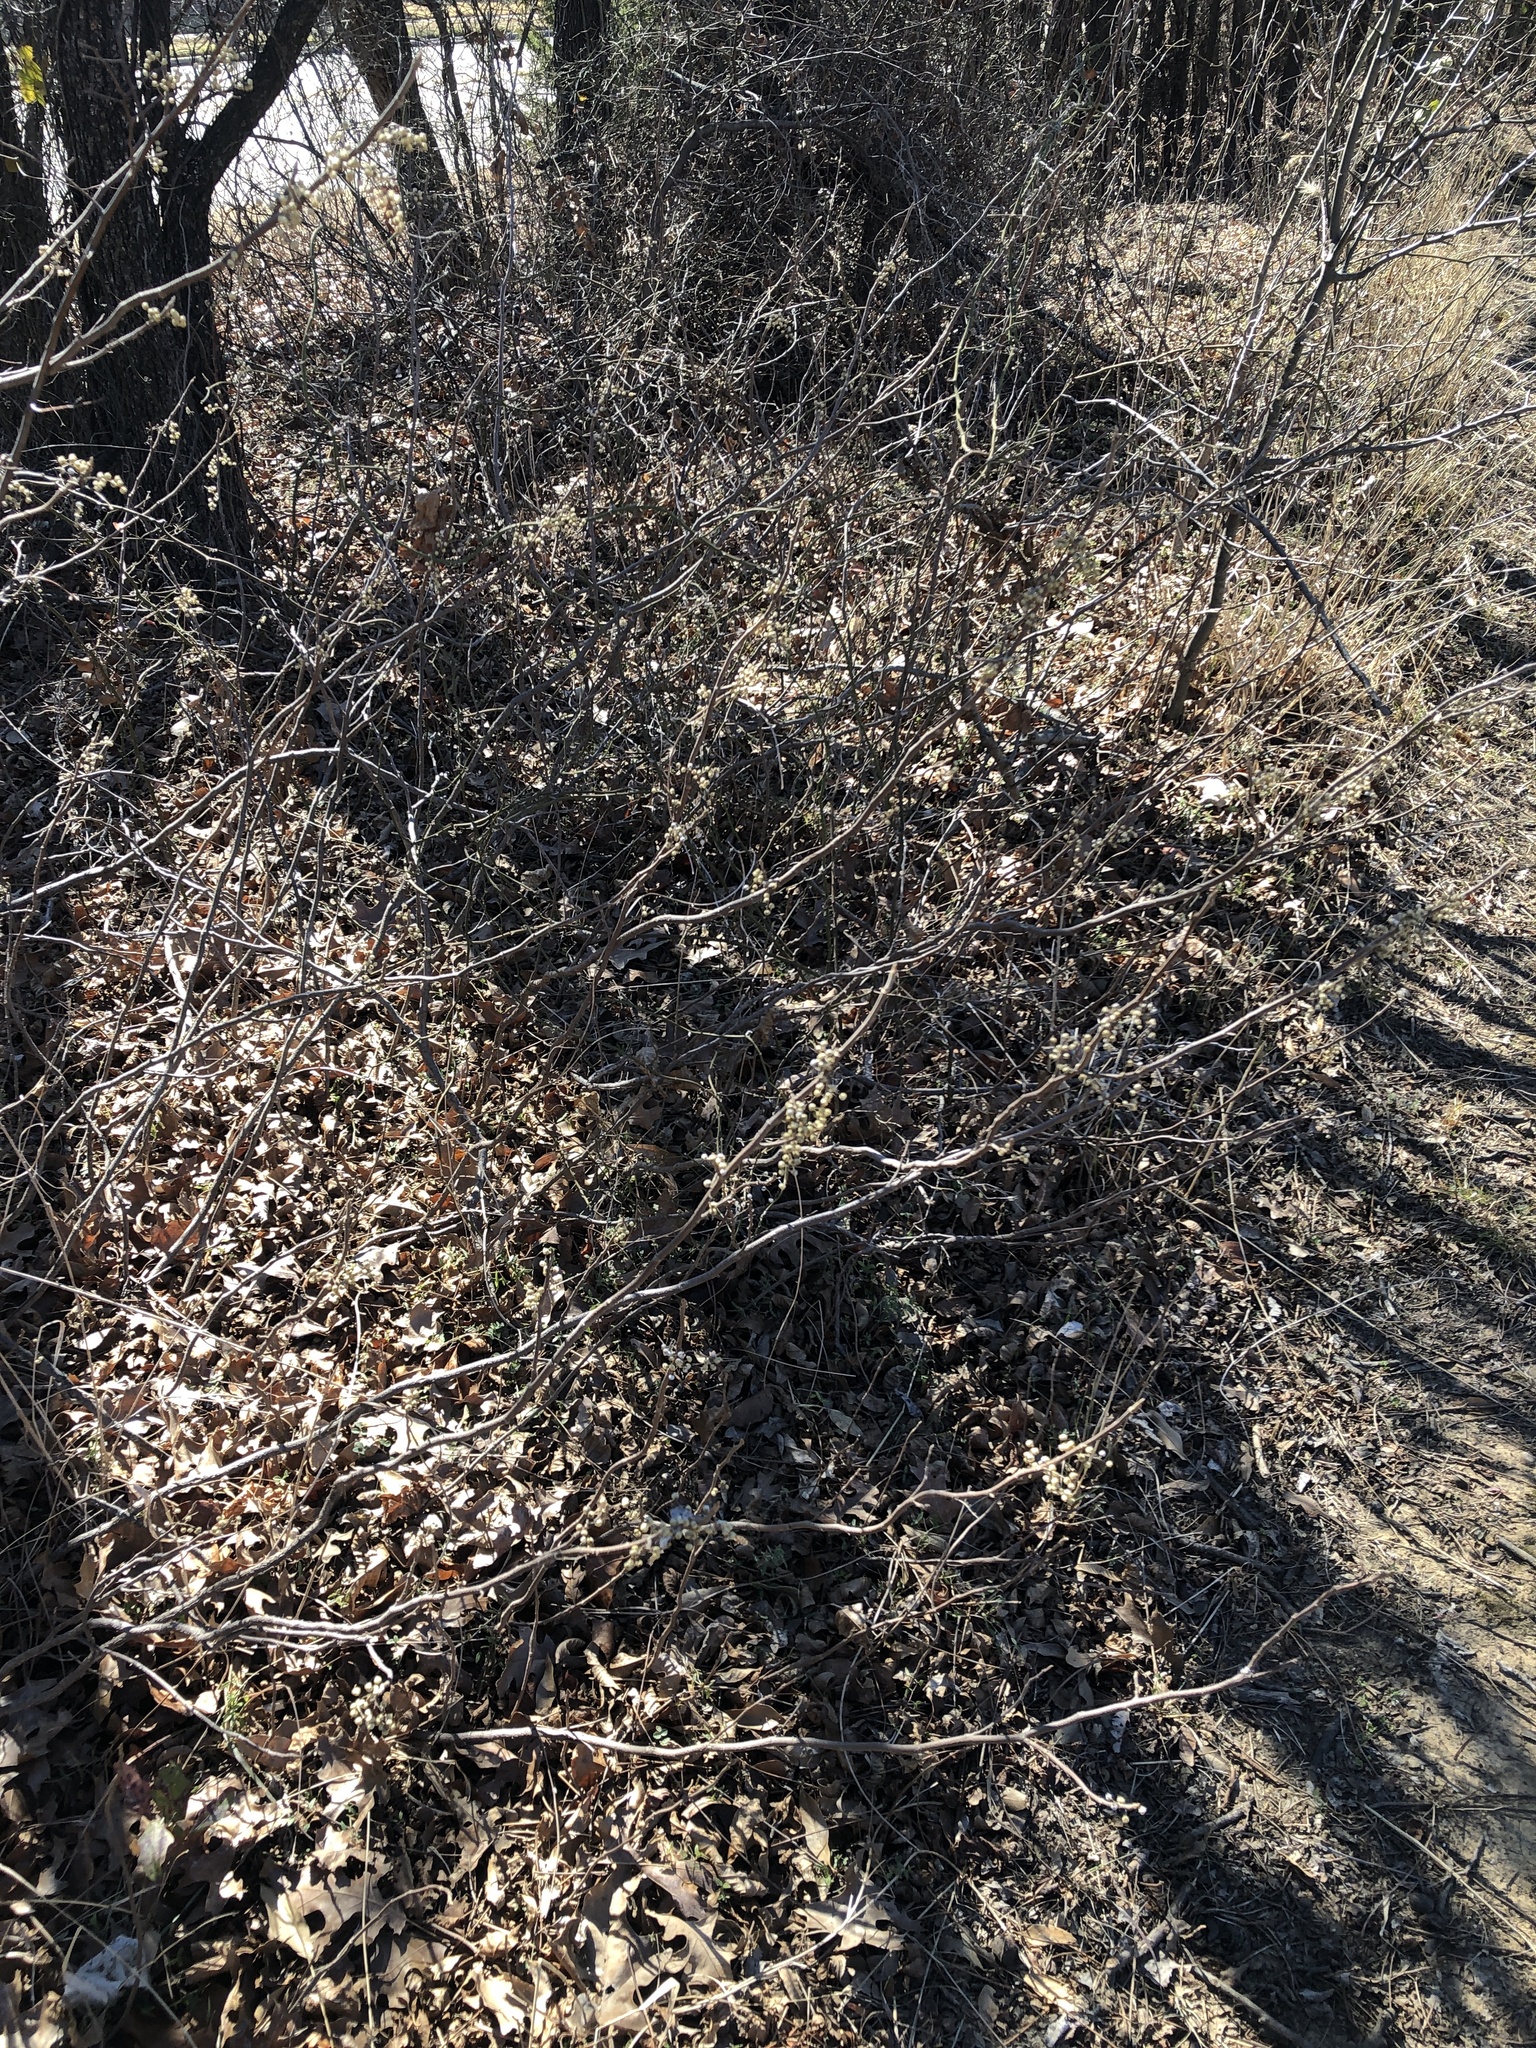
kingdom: Plantae
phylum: Tracheophyta
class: Magnoliopsida
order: Sapindales
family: Anacardiaceae
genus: Toxicodendron
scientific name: Toxicodendron radicans
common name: Poison ivy
